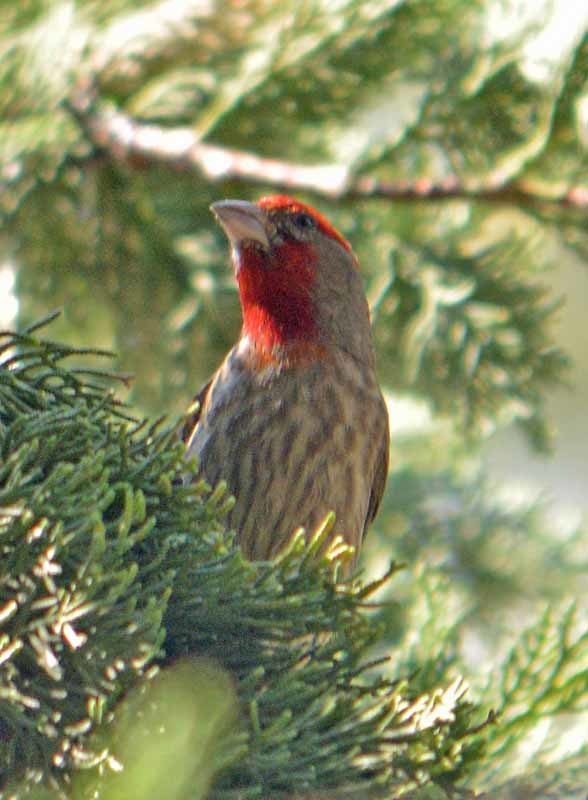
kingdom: Animalia
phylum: Chordata
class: Aves
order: Passeriformes
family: Fringillidae
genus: Haemorhous
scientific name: Haemorhous mexicanus
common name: House finch
